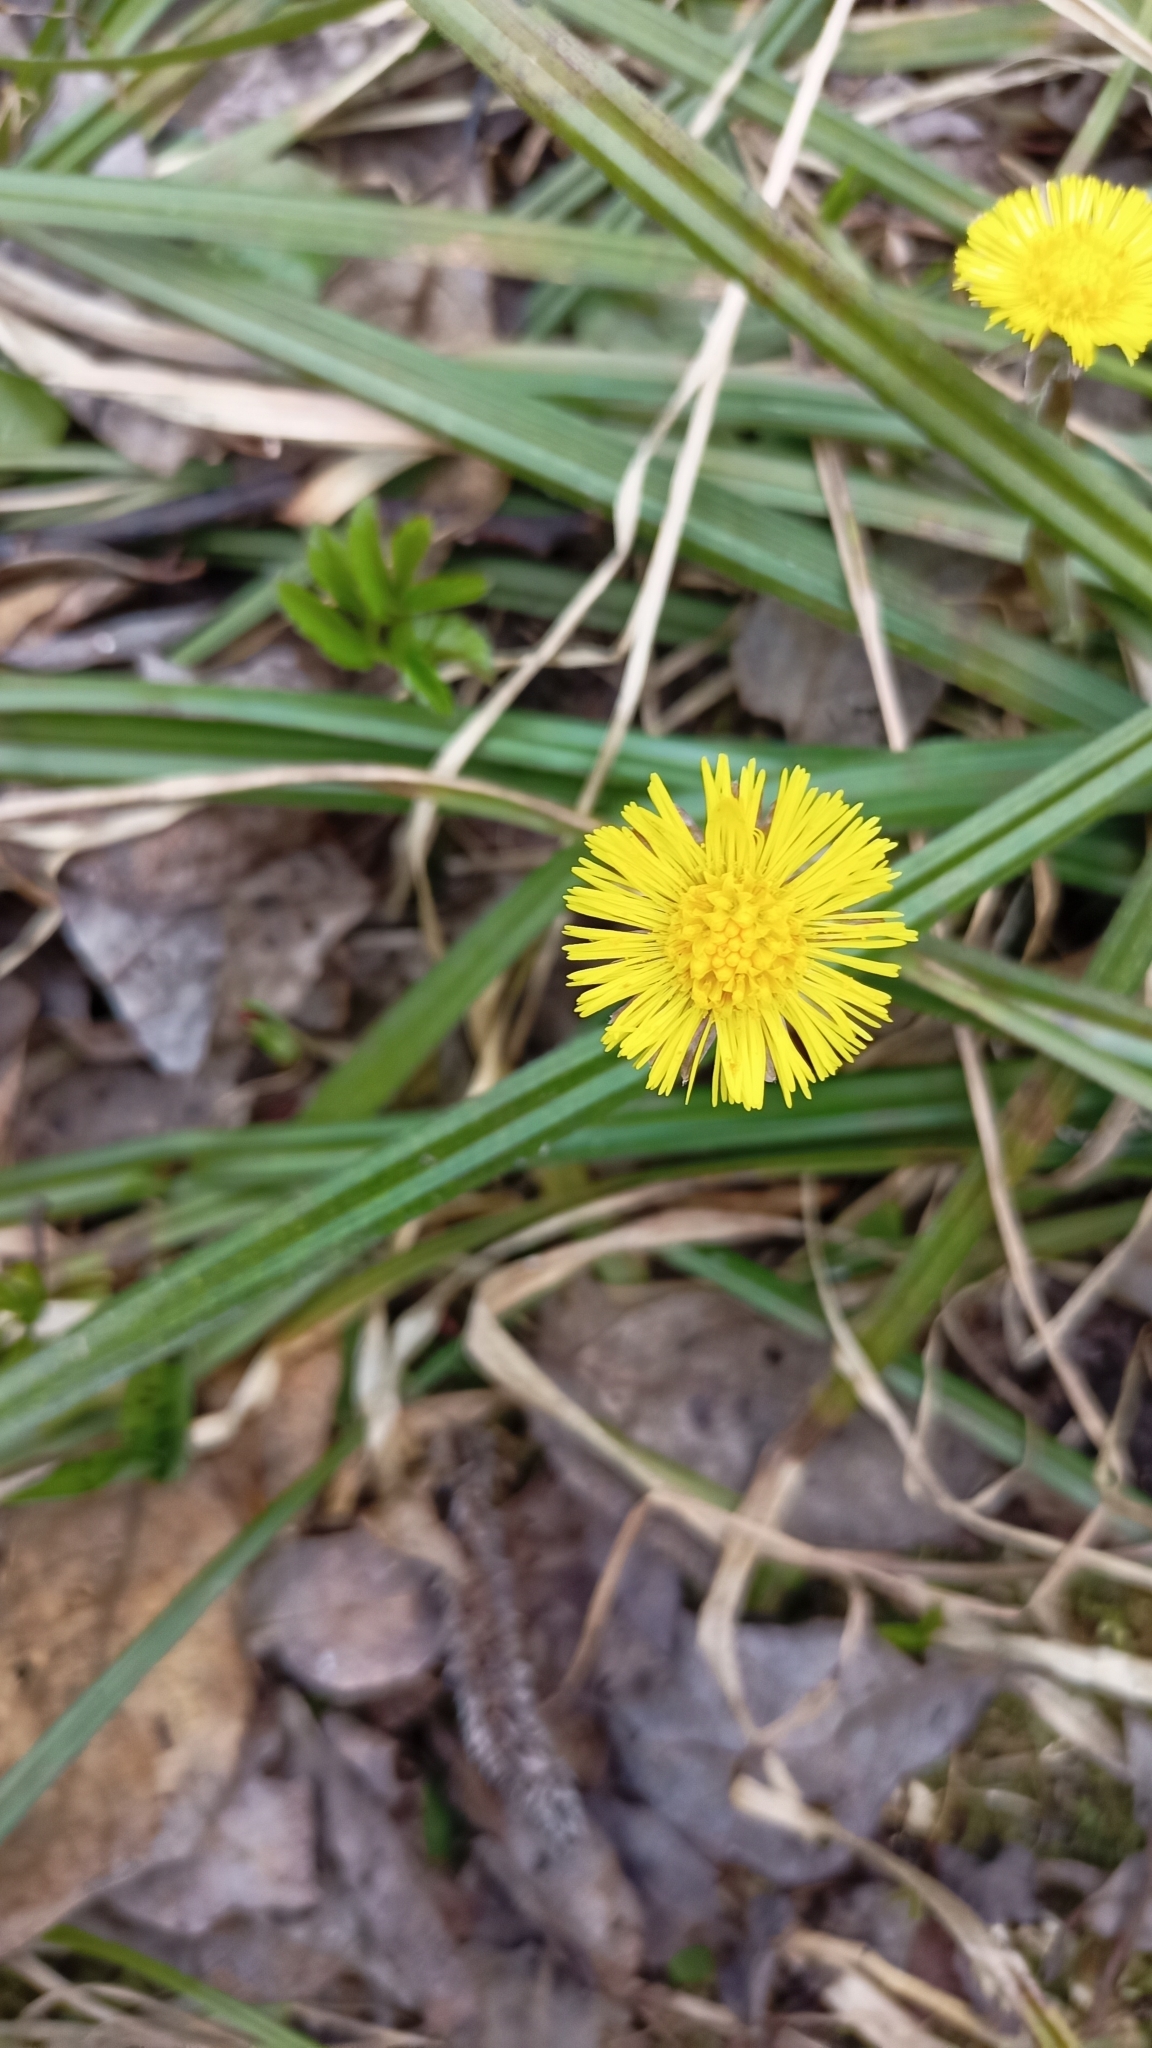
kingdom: Plantae
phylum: Tracheophyta
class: Magnoliopsida
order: Asterales
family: Asteraceae
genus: Tussilago
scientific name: Tussilago farfara
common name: Coltsfoot
